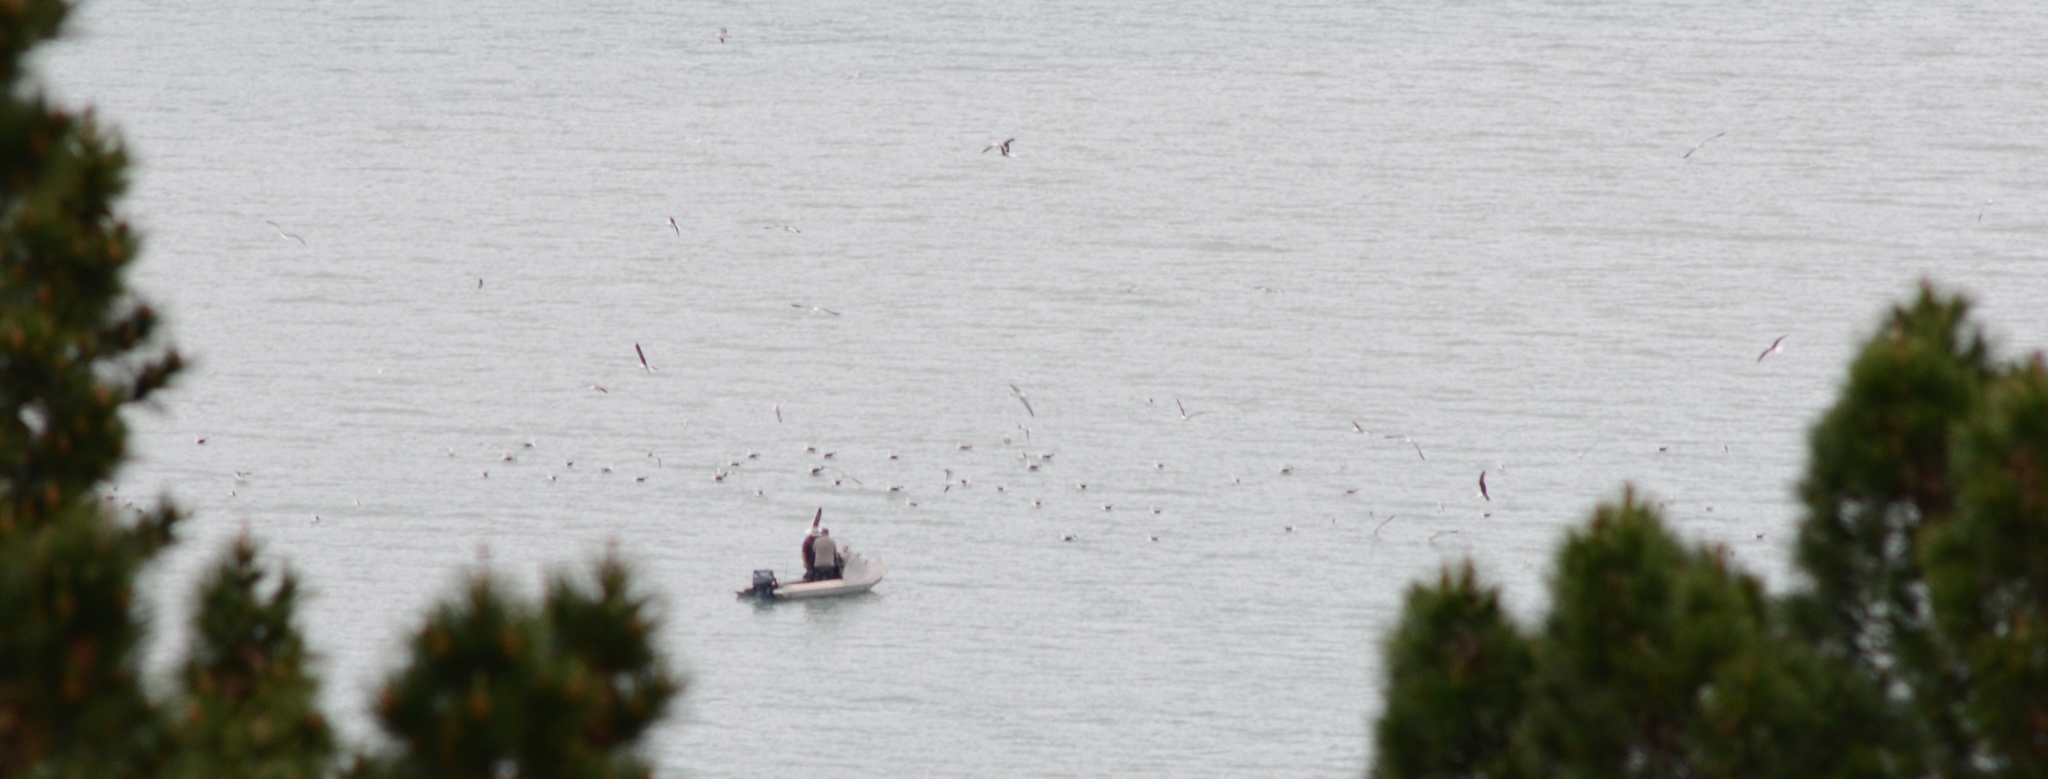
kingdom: Animalia
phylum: Chordata
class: Aves
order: Charadriiformes
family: Laridae
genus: Larus
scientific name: Larus dominicanus
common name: Kelp gull
